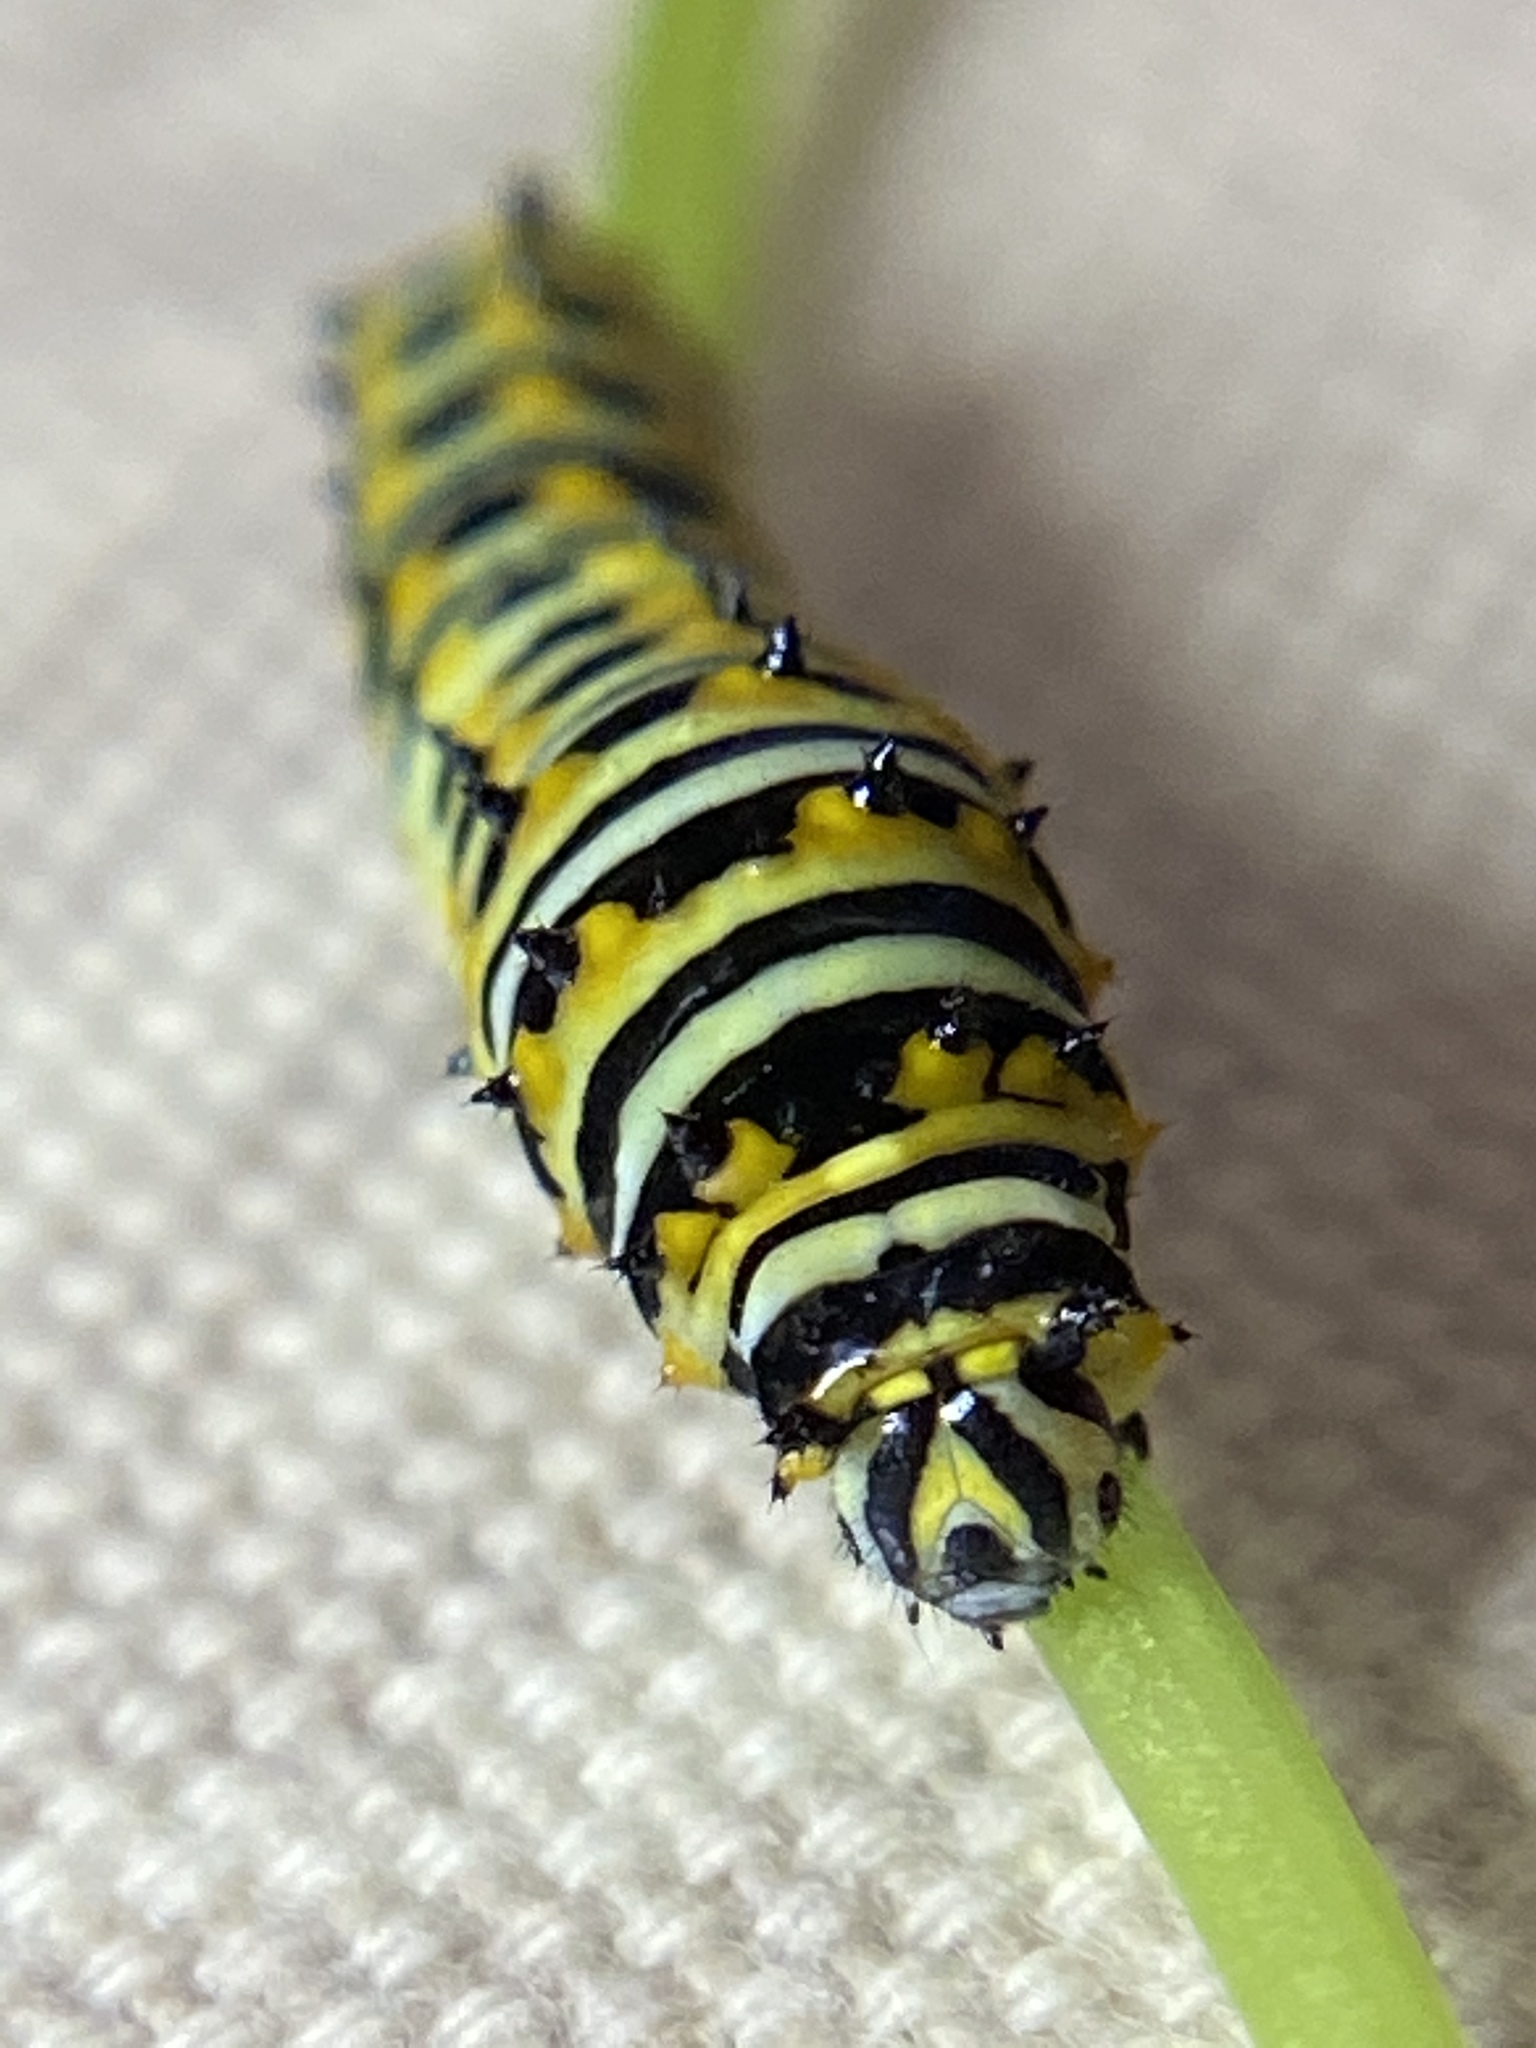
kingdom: Animalia
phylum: Arthropoda
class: Insecta
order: Lepidoptera
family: Papilionidae
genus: Papilio
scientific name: Papilio polyxenes
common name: Black swallowtail
